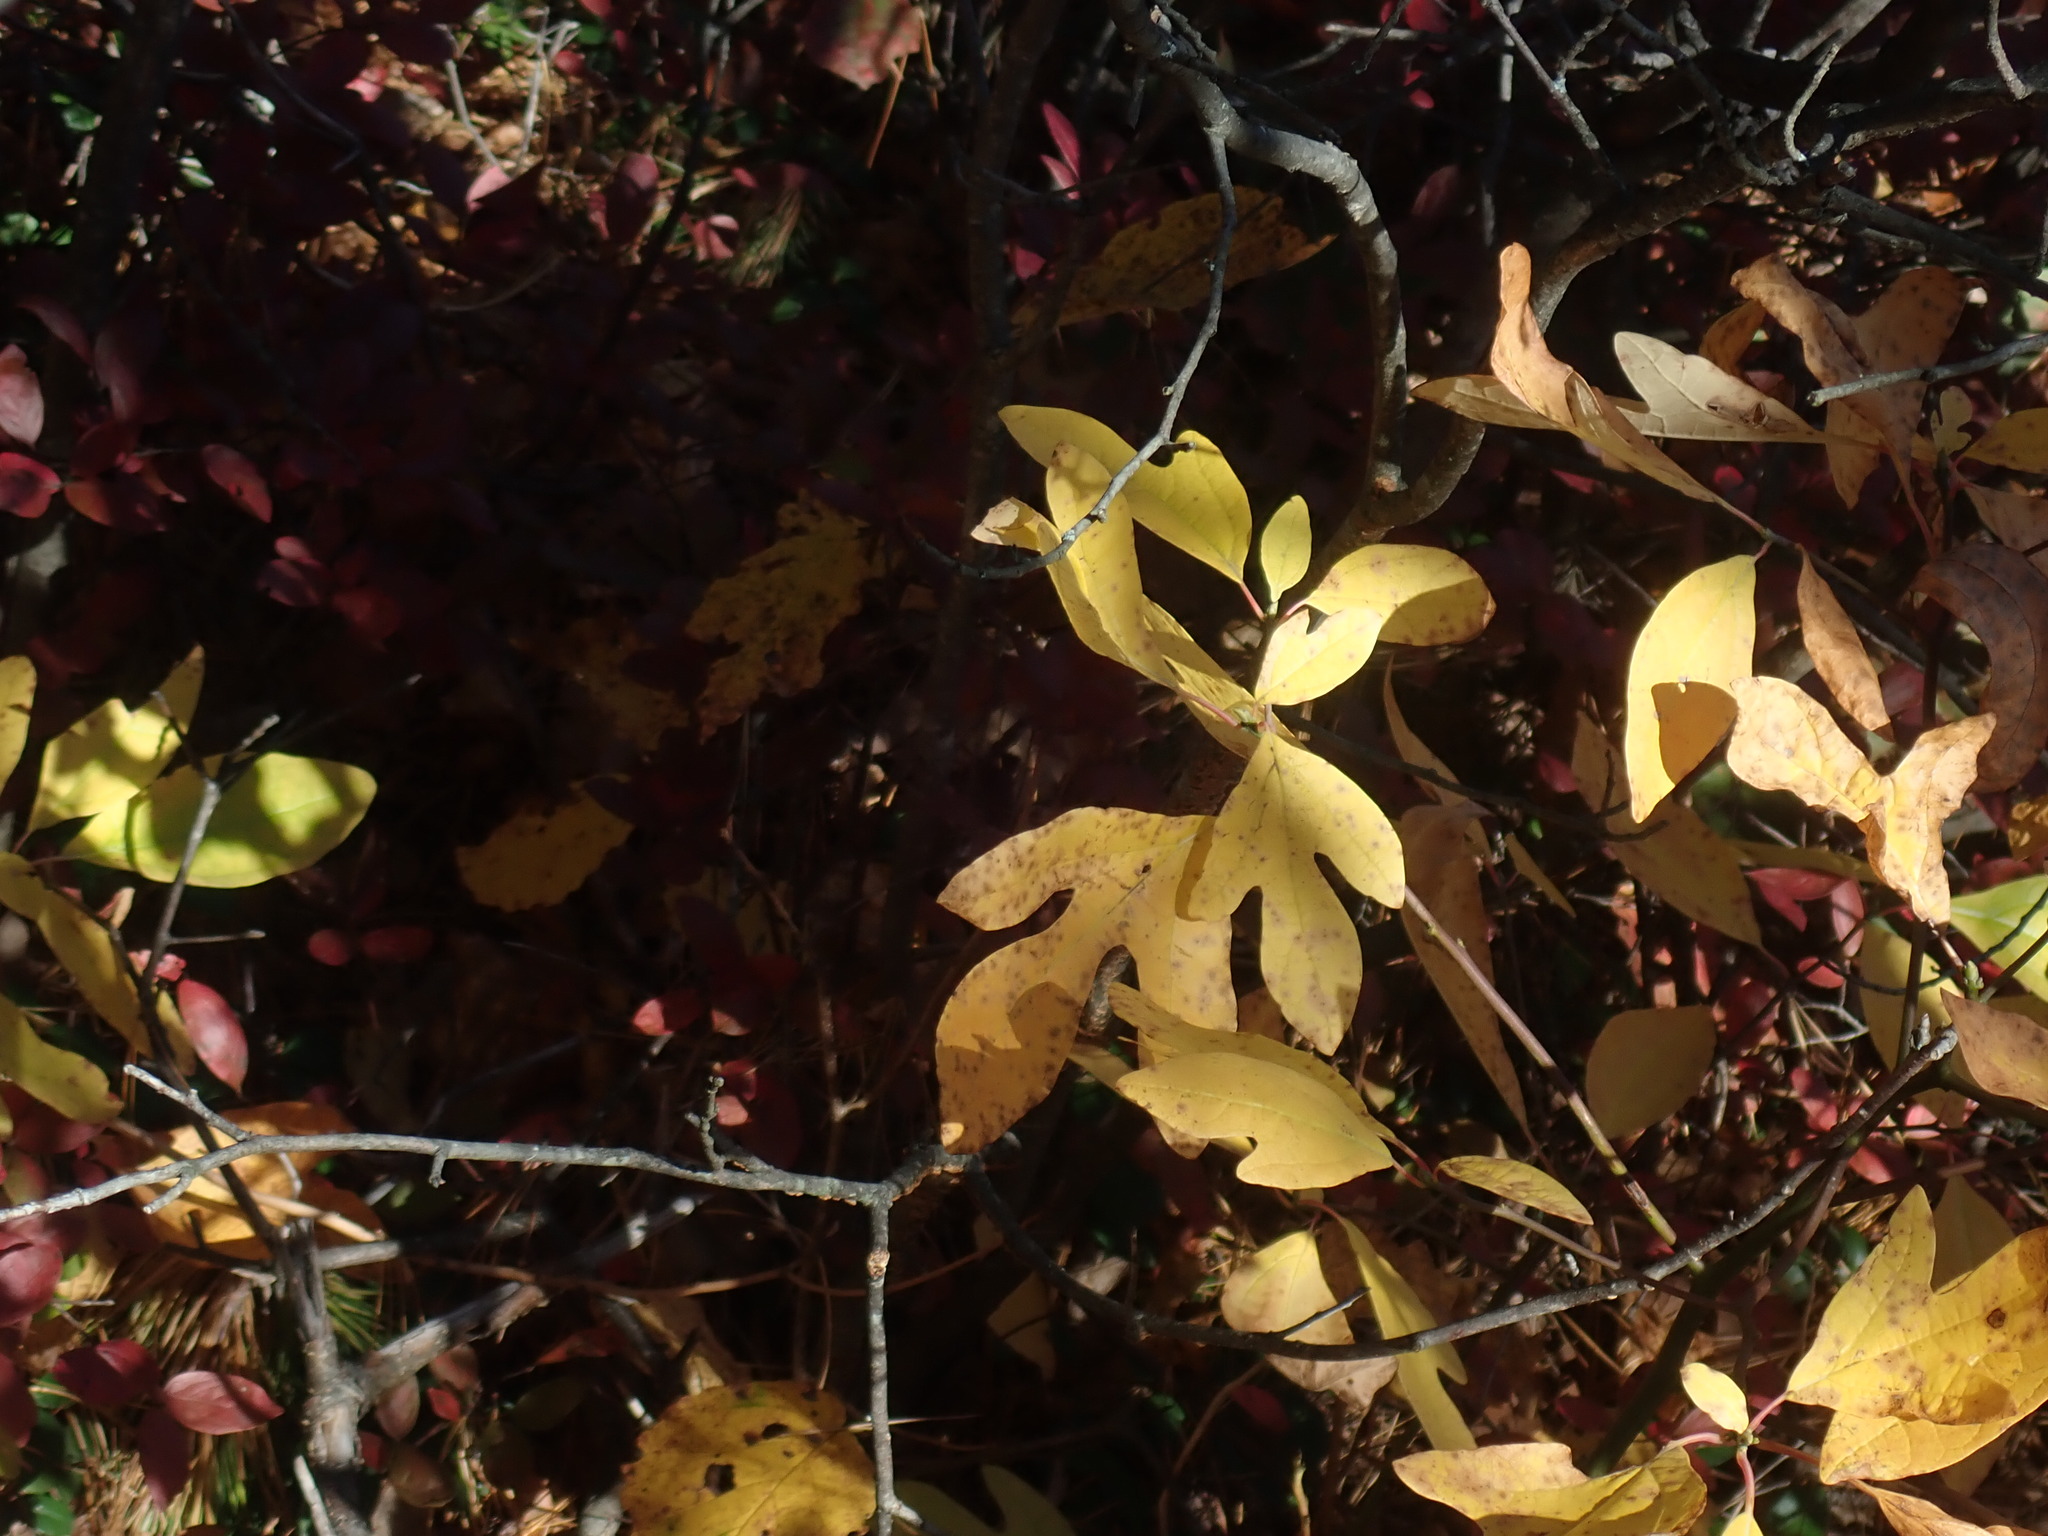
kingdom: Plantae
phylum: Tracheophyta
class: Magnoliopsida
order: Laurales
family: Lauraceae
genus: Sassafras
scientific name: Sassafras albidum
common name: Sassafras
